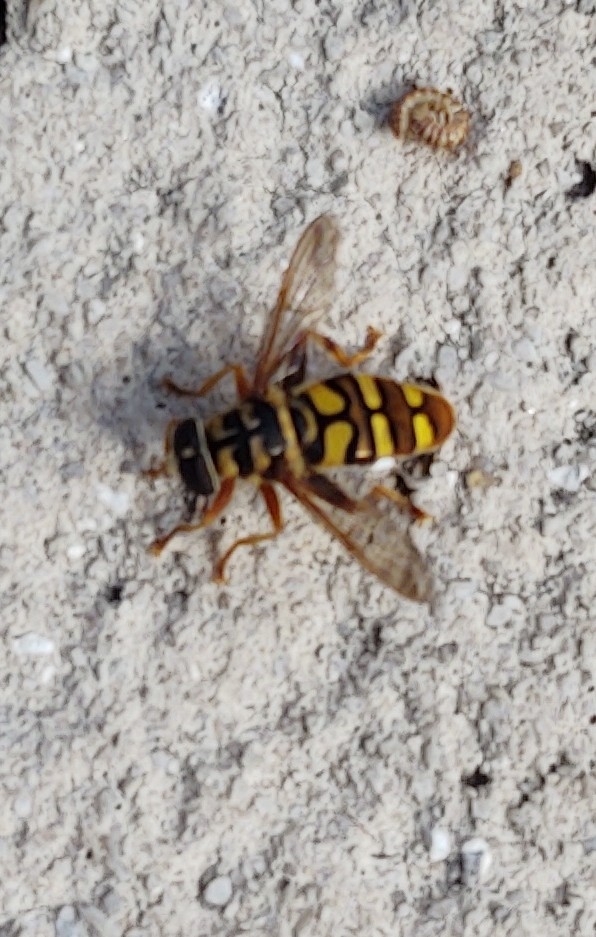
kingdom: Animalia
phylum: Arthropoda
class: Insecta
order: Diptera
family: Syrphidae
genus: Milesia
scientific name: Milesia virginiensis
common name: Virginia giant
